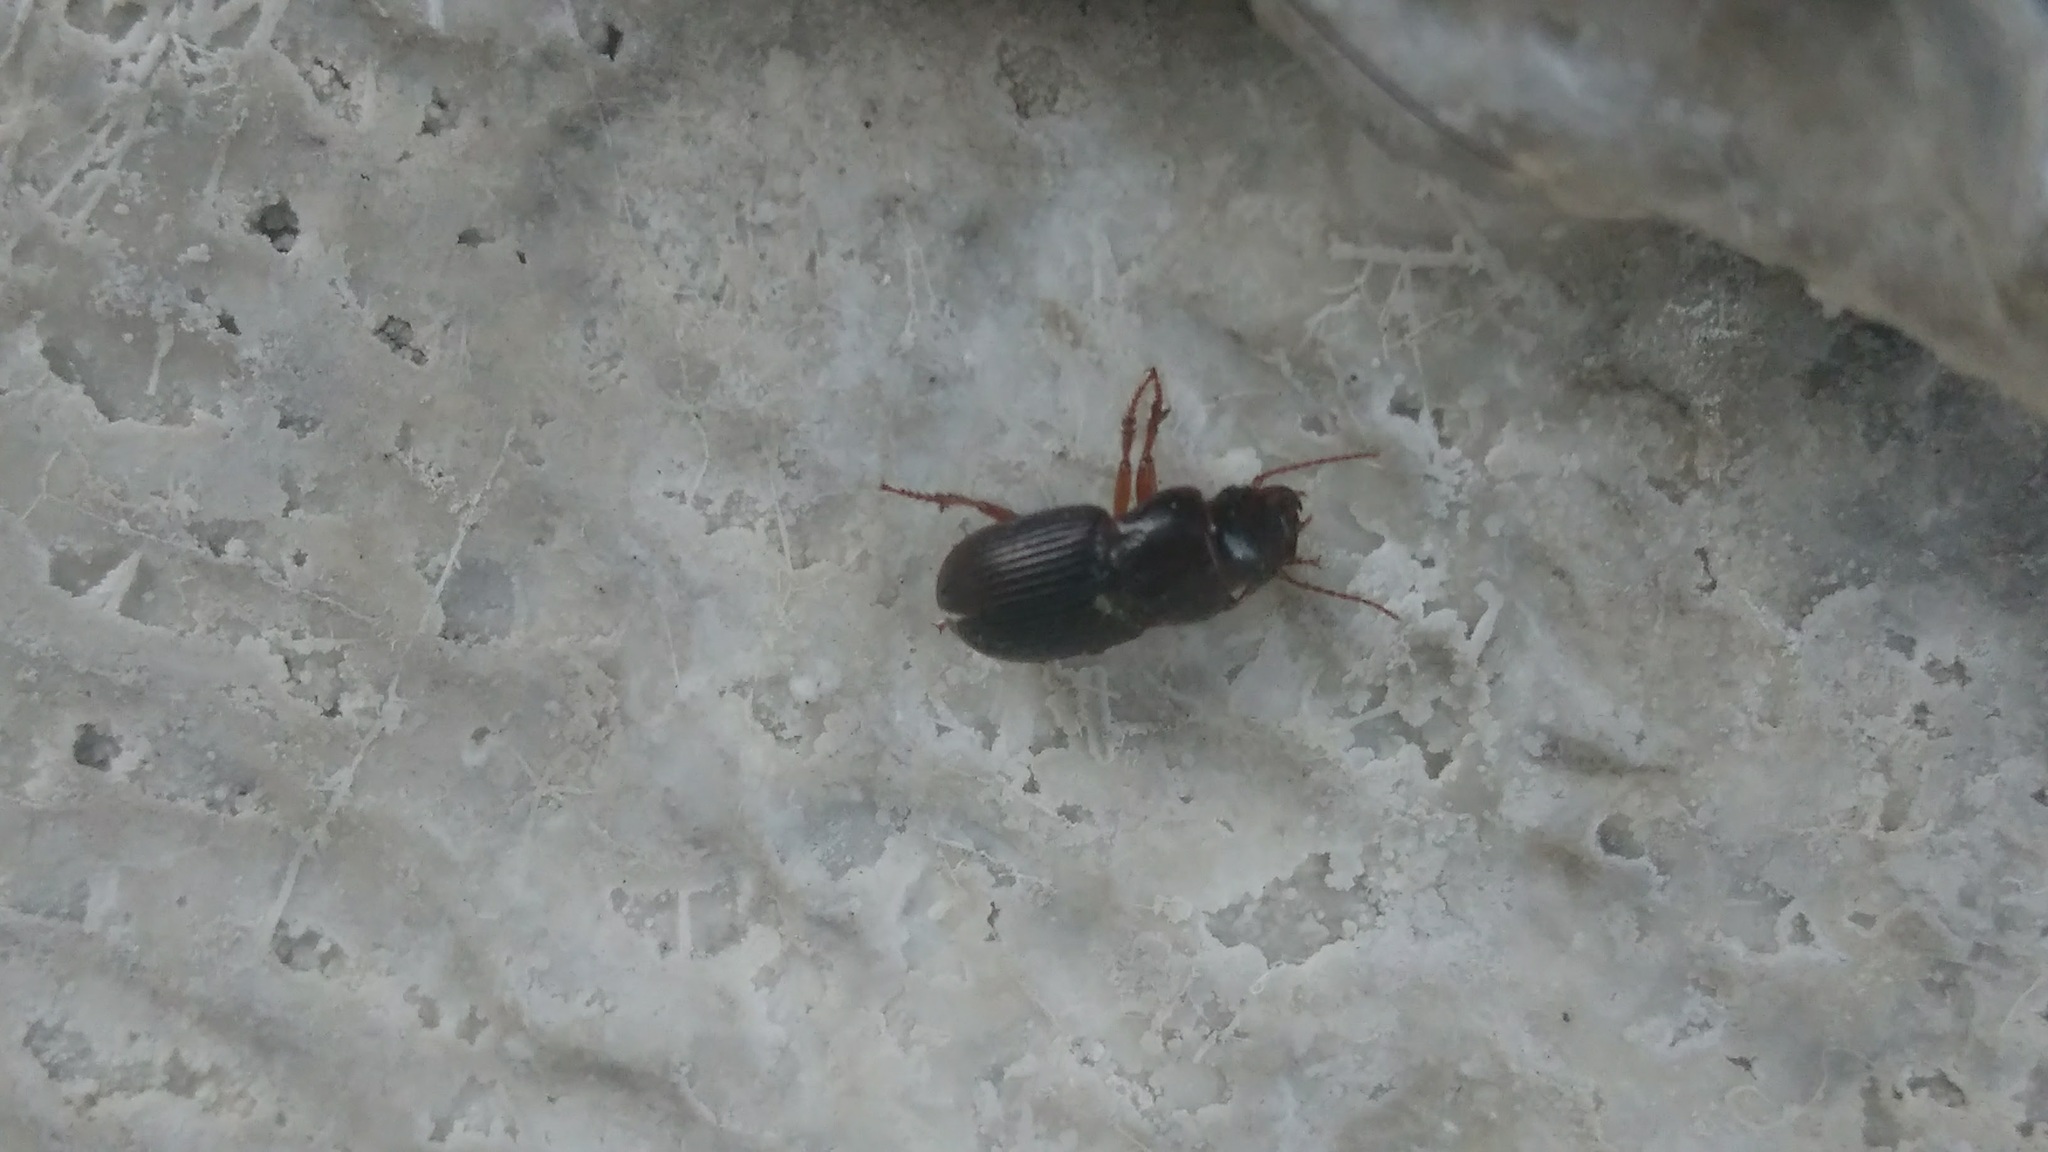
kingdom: Animalia
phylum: Arthropoda
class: Insecta
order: Coleoptera
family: Carabidae
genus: Cratacanthus
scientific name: Cratacanthus dubius
